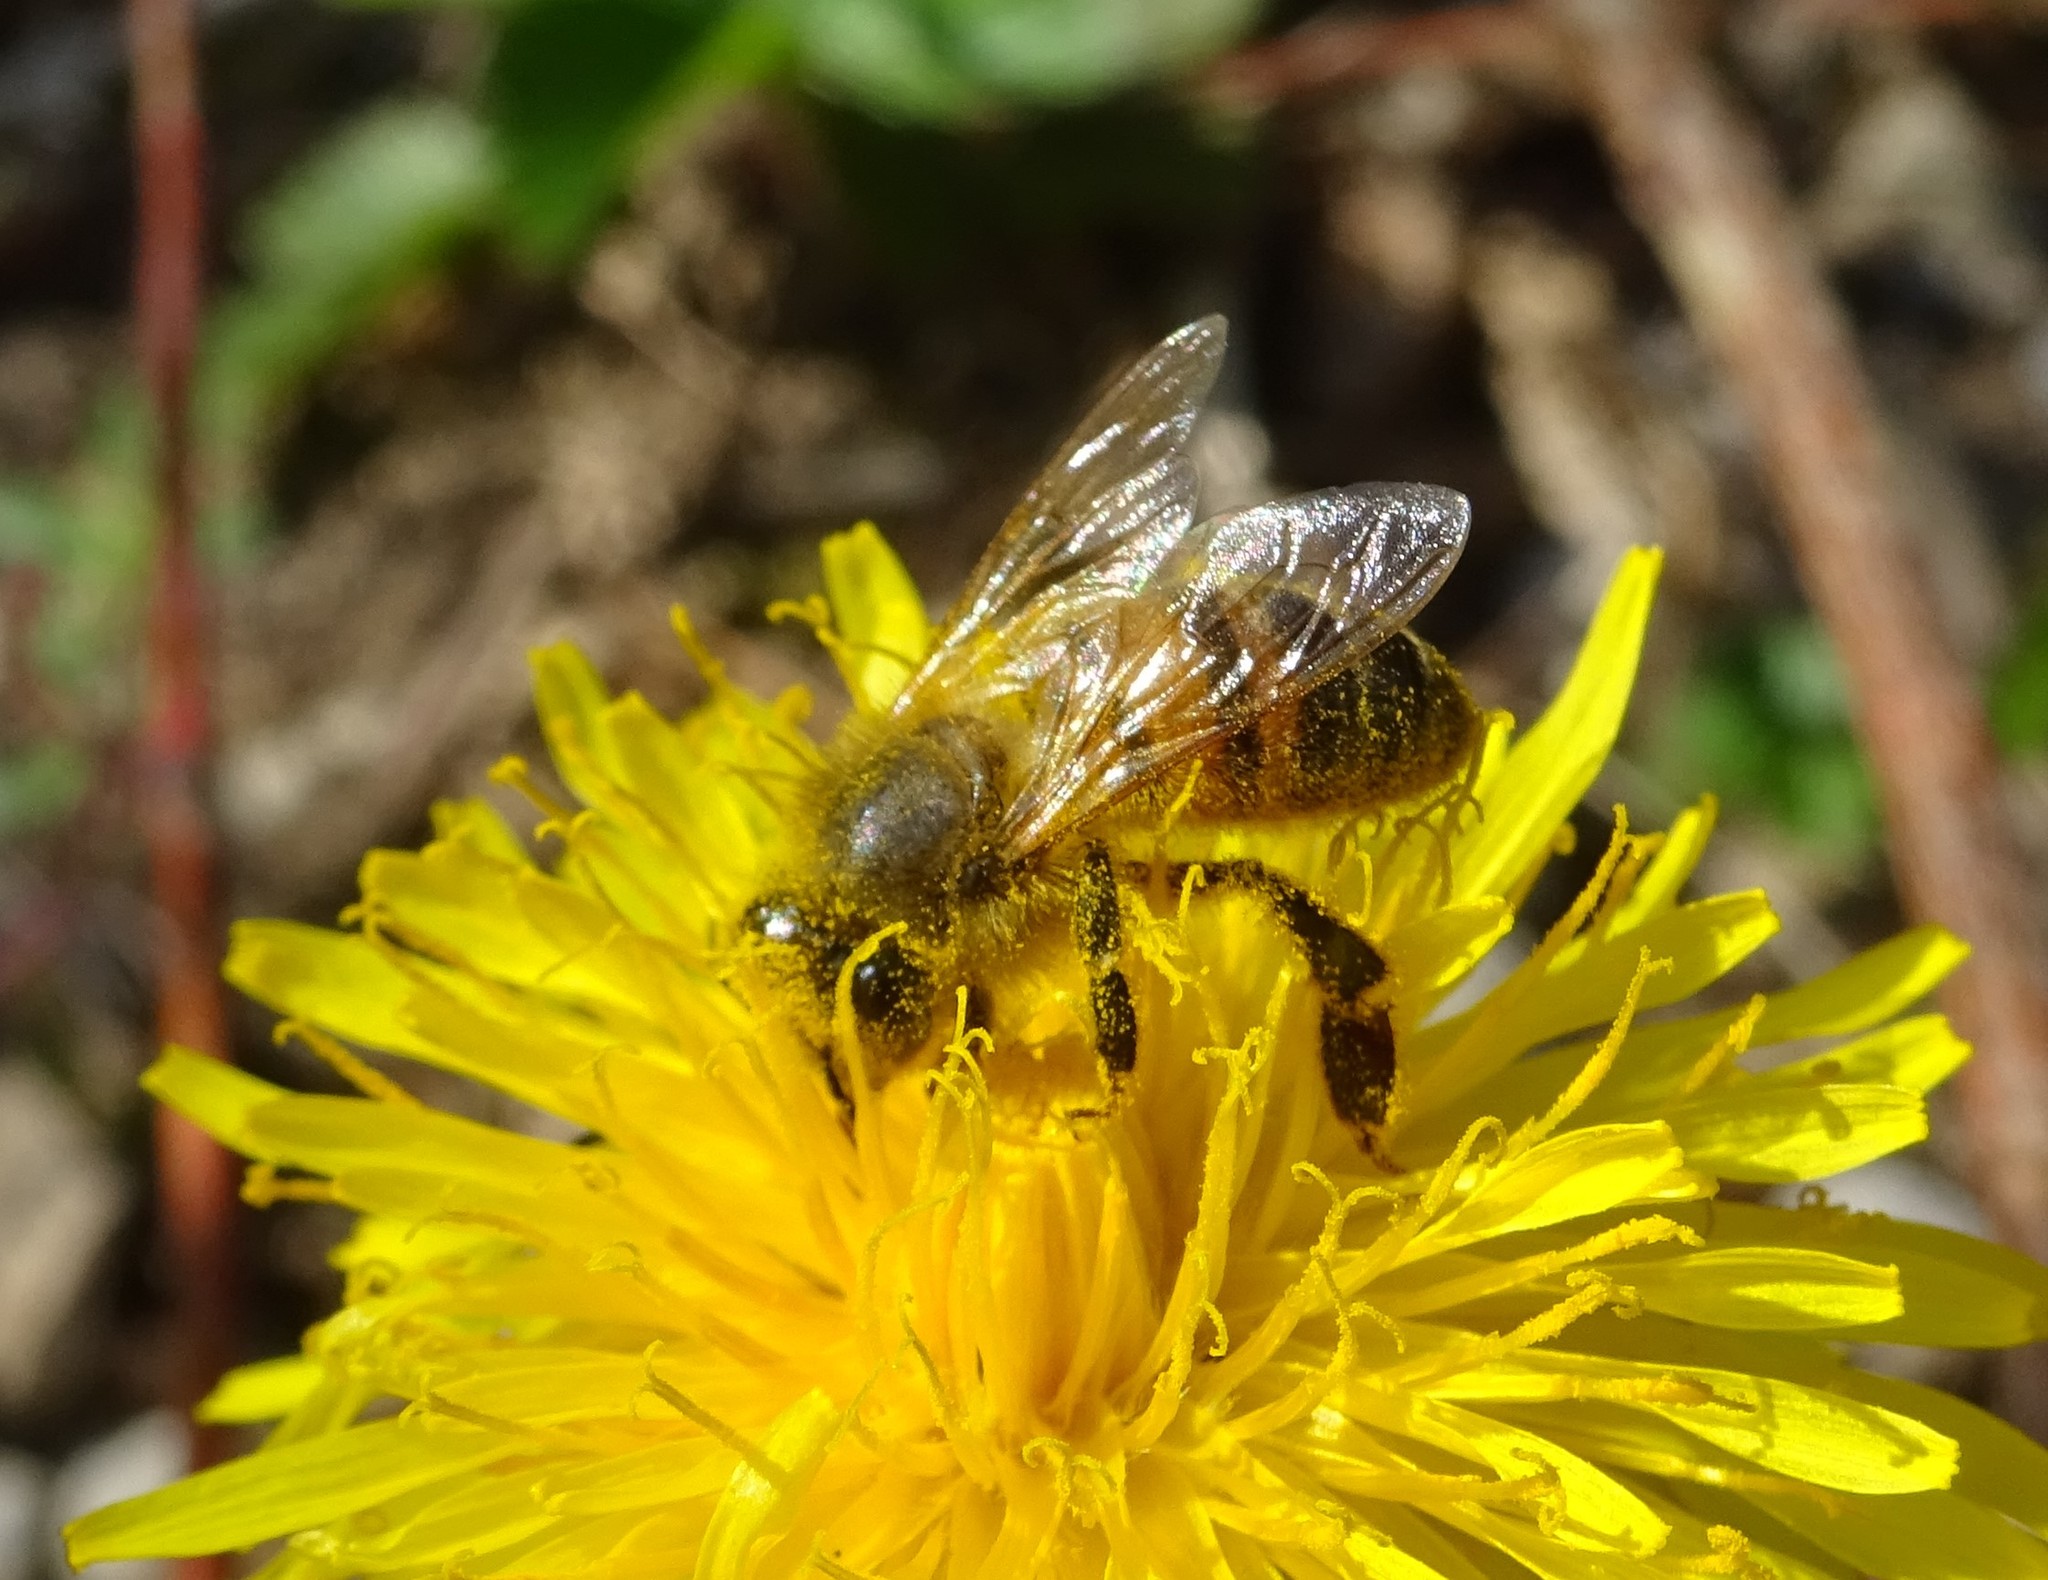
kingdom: Animalia
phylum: Arthropoda
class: Insecta
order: Hymenoptera
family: Apidae
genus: Apis
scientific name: Apis mellifera
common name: Honey bee
